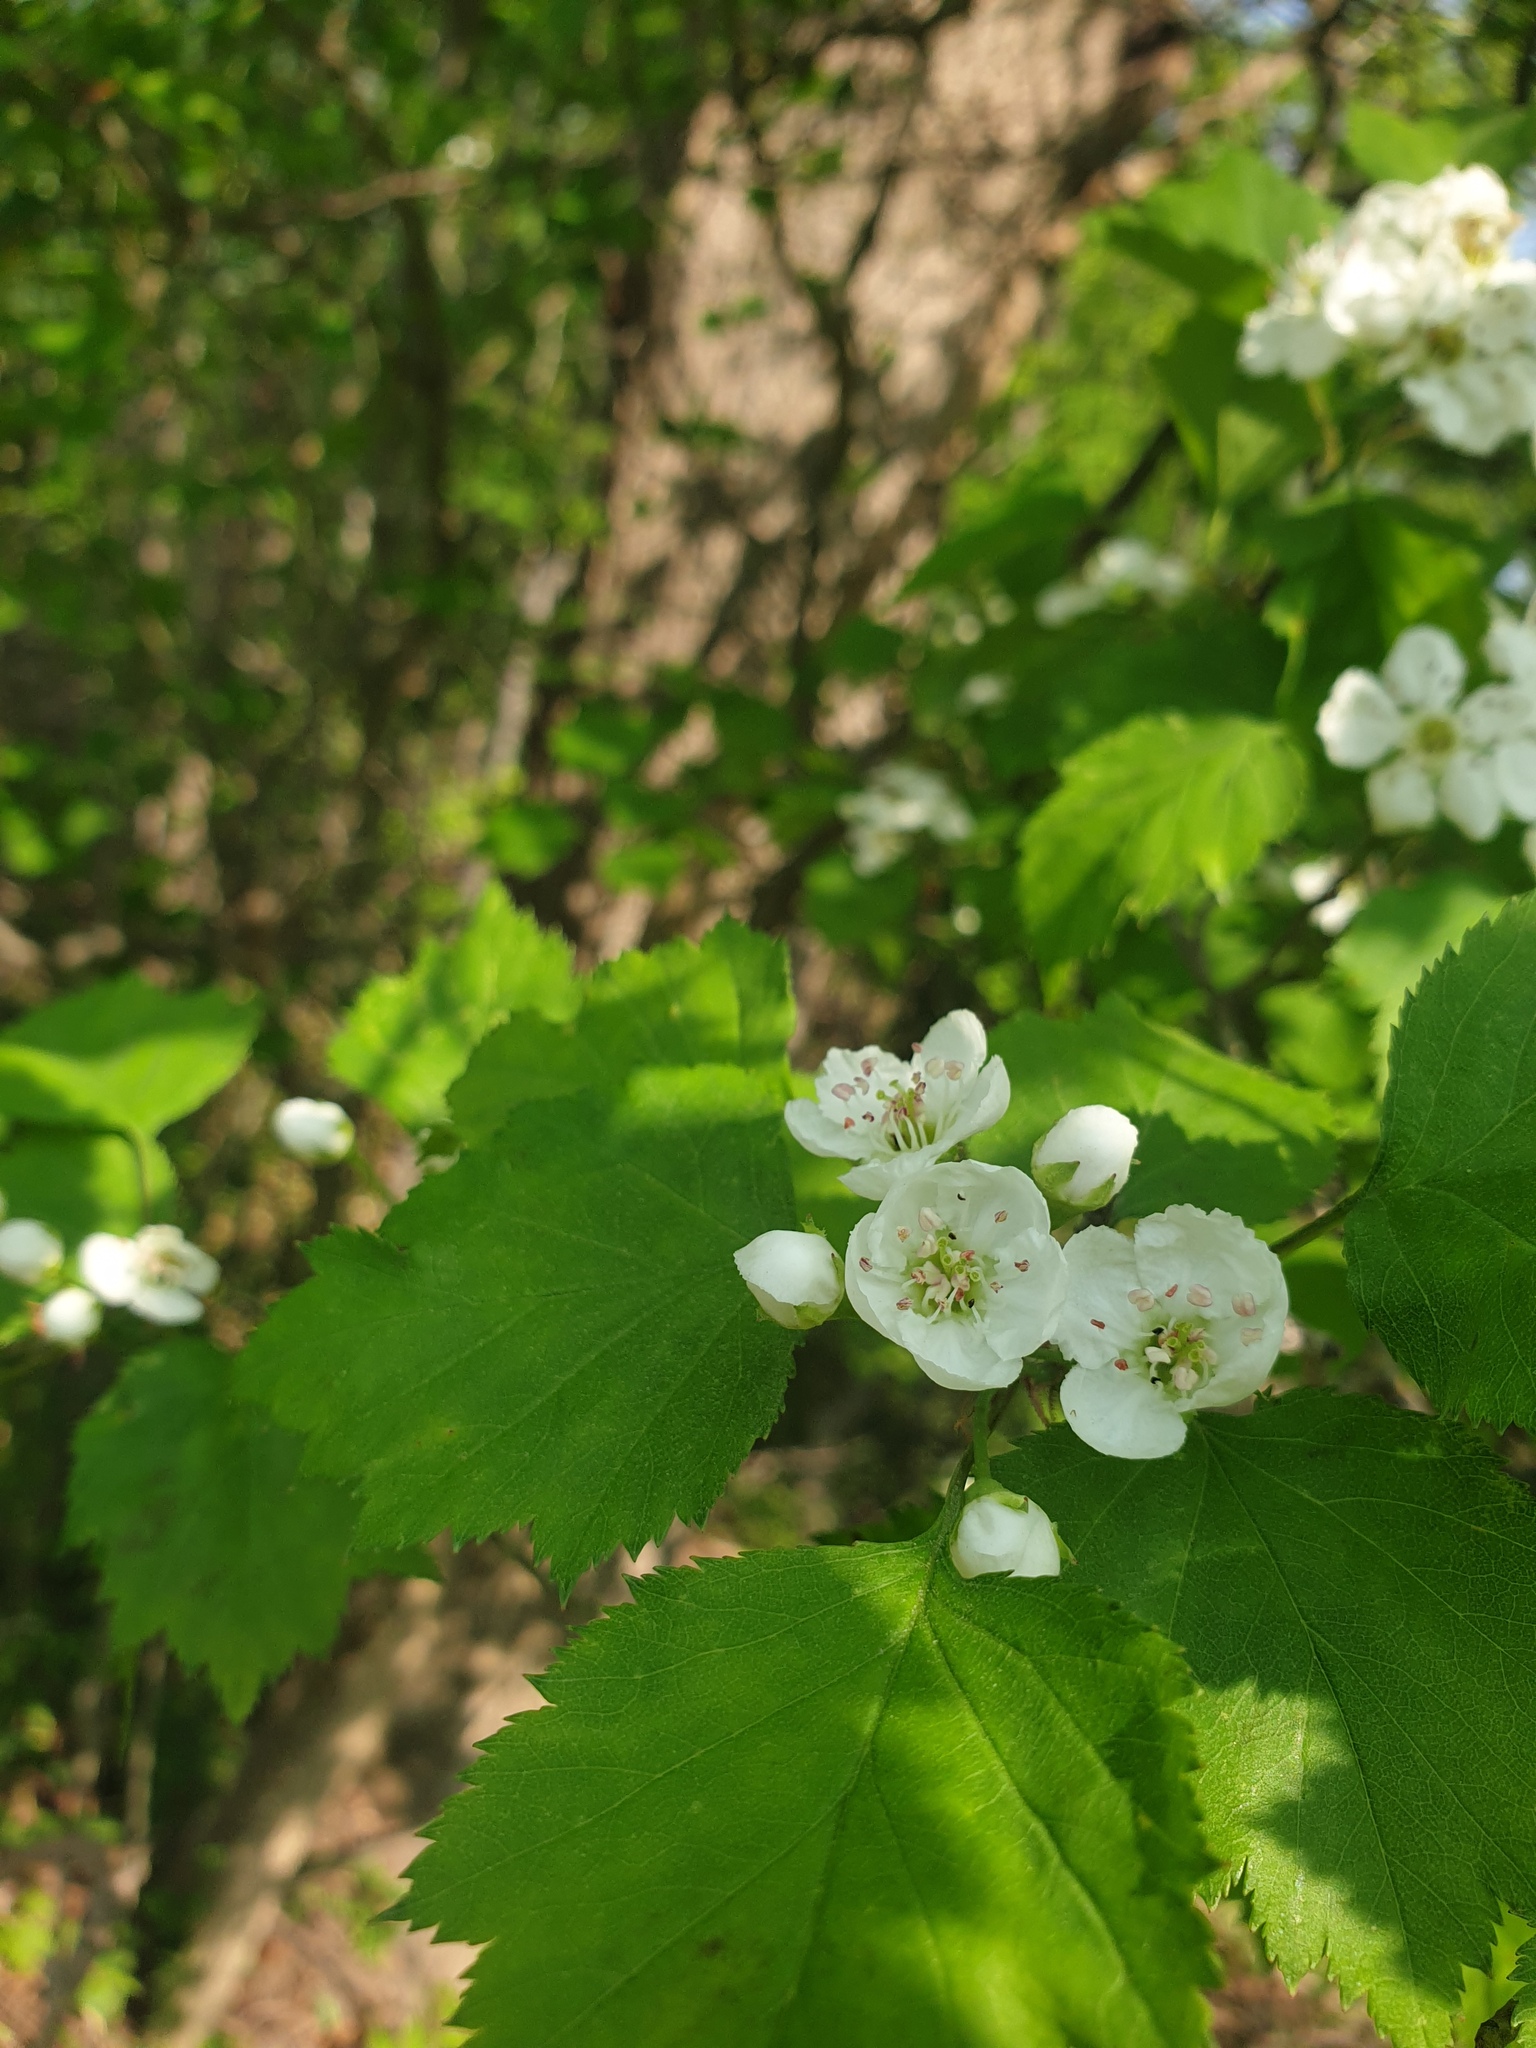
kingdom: Plantae
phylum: Tracheophyta
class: Magnoliopsida
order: Rosales
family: Rosaceae
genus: Crataegus
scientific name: Crataegus pruinosa
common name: Waxy-fruit hawthorn
